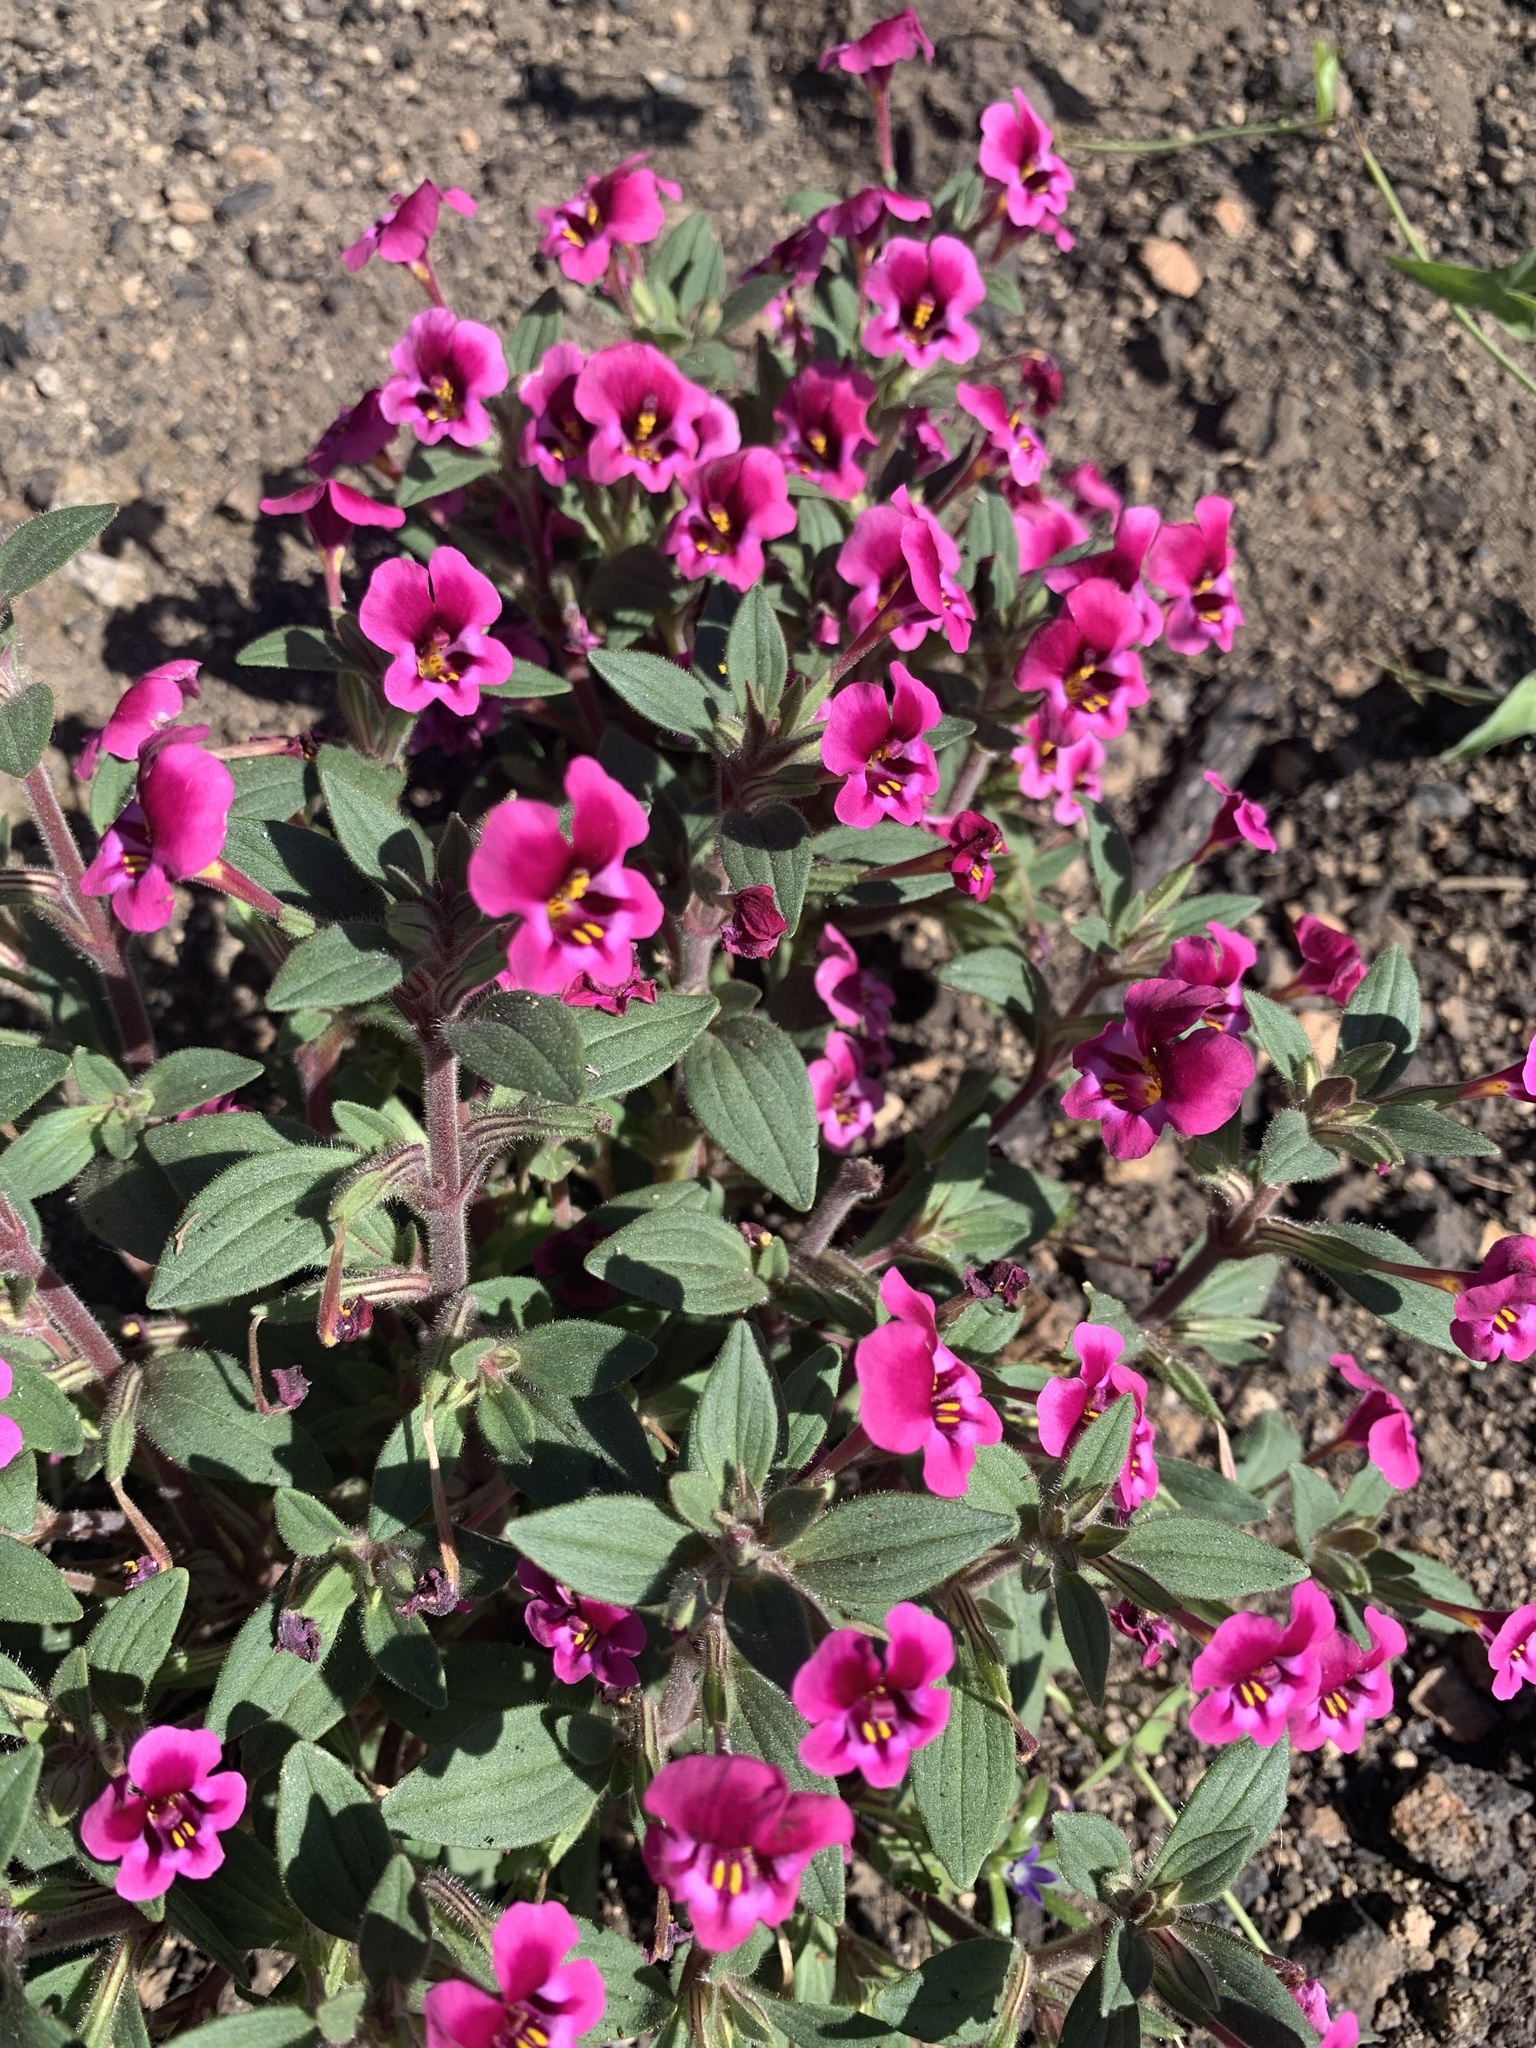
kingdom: Plantae
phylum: Tracheophyta
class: Magnoliopsida
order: Lamiales
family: Phrymaceae
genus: Diplacus
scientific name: Diplacus kelloggii
